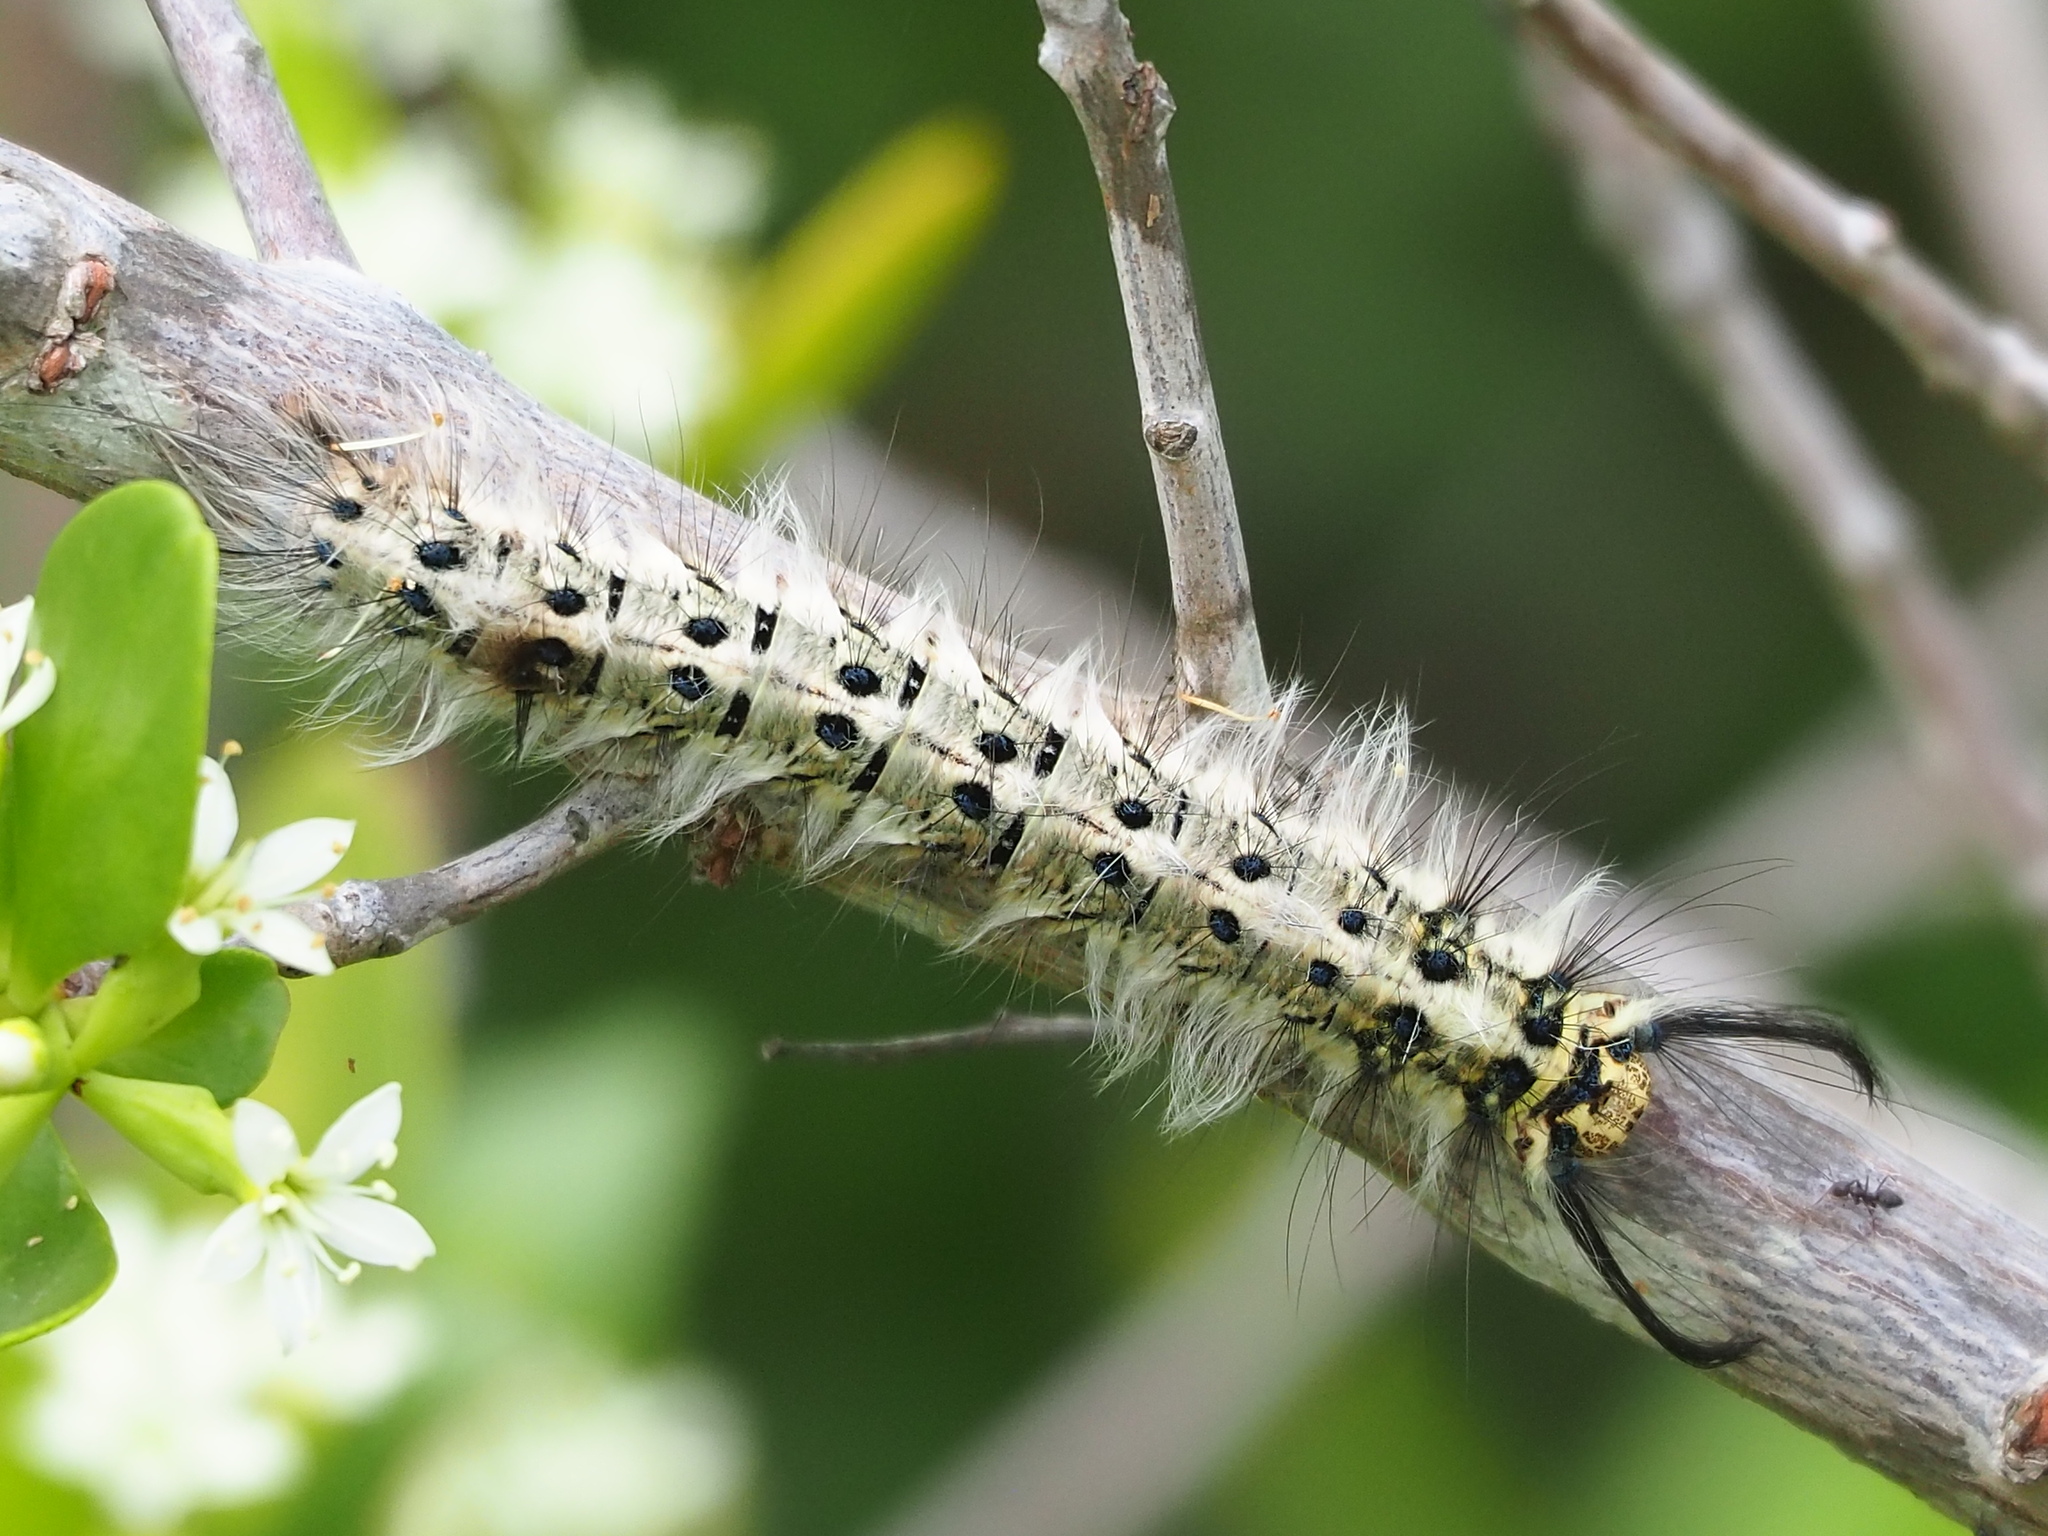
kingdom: Animalia
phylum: Arthropoda
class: Insecta
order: Lepidoptera
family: Lasiocampidae
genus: Trabala
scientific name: Trabala vishnou
